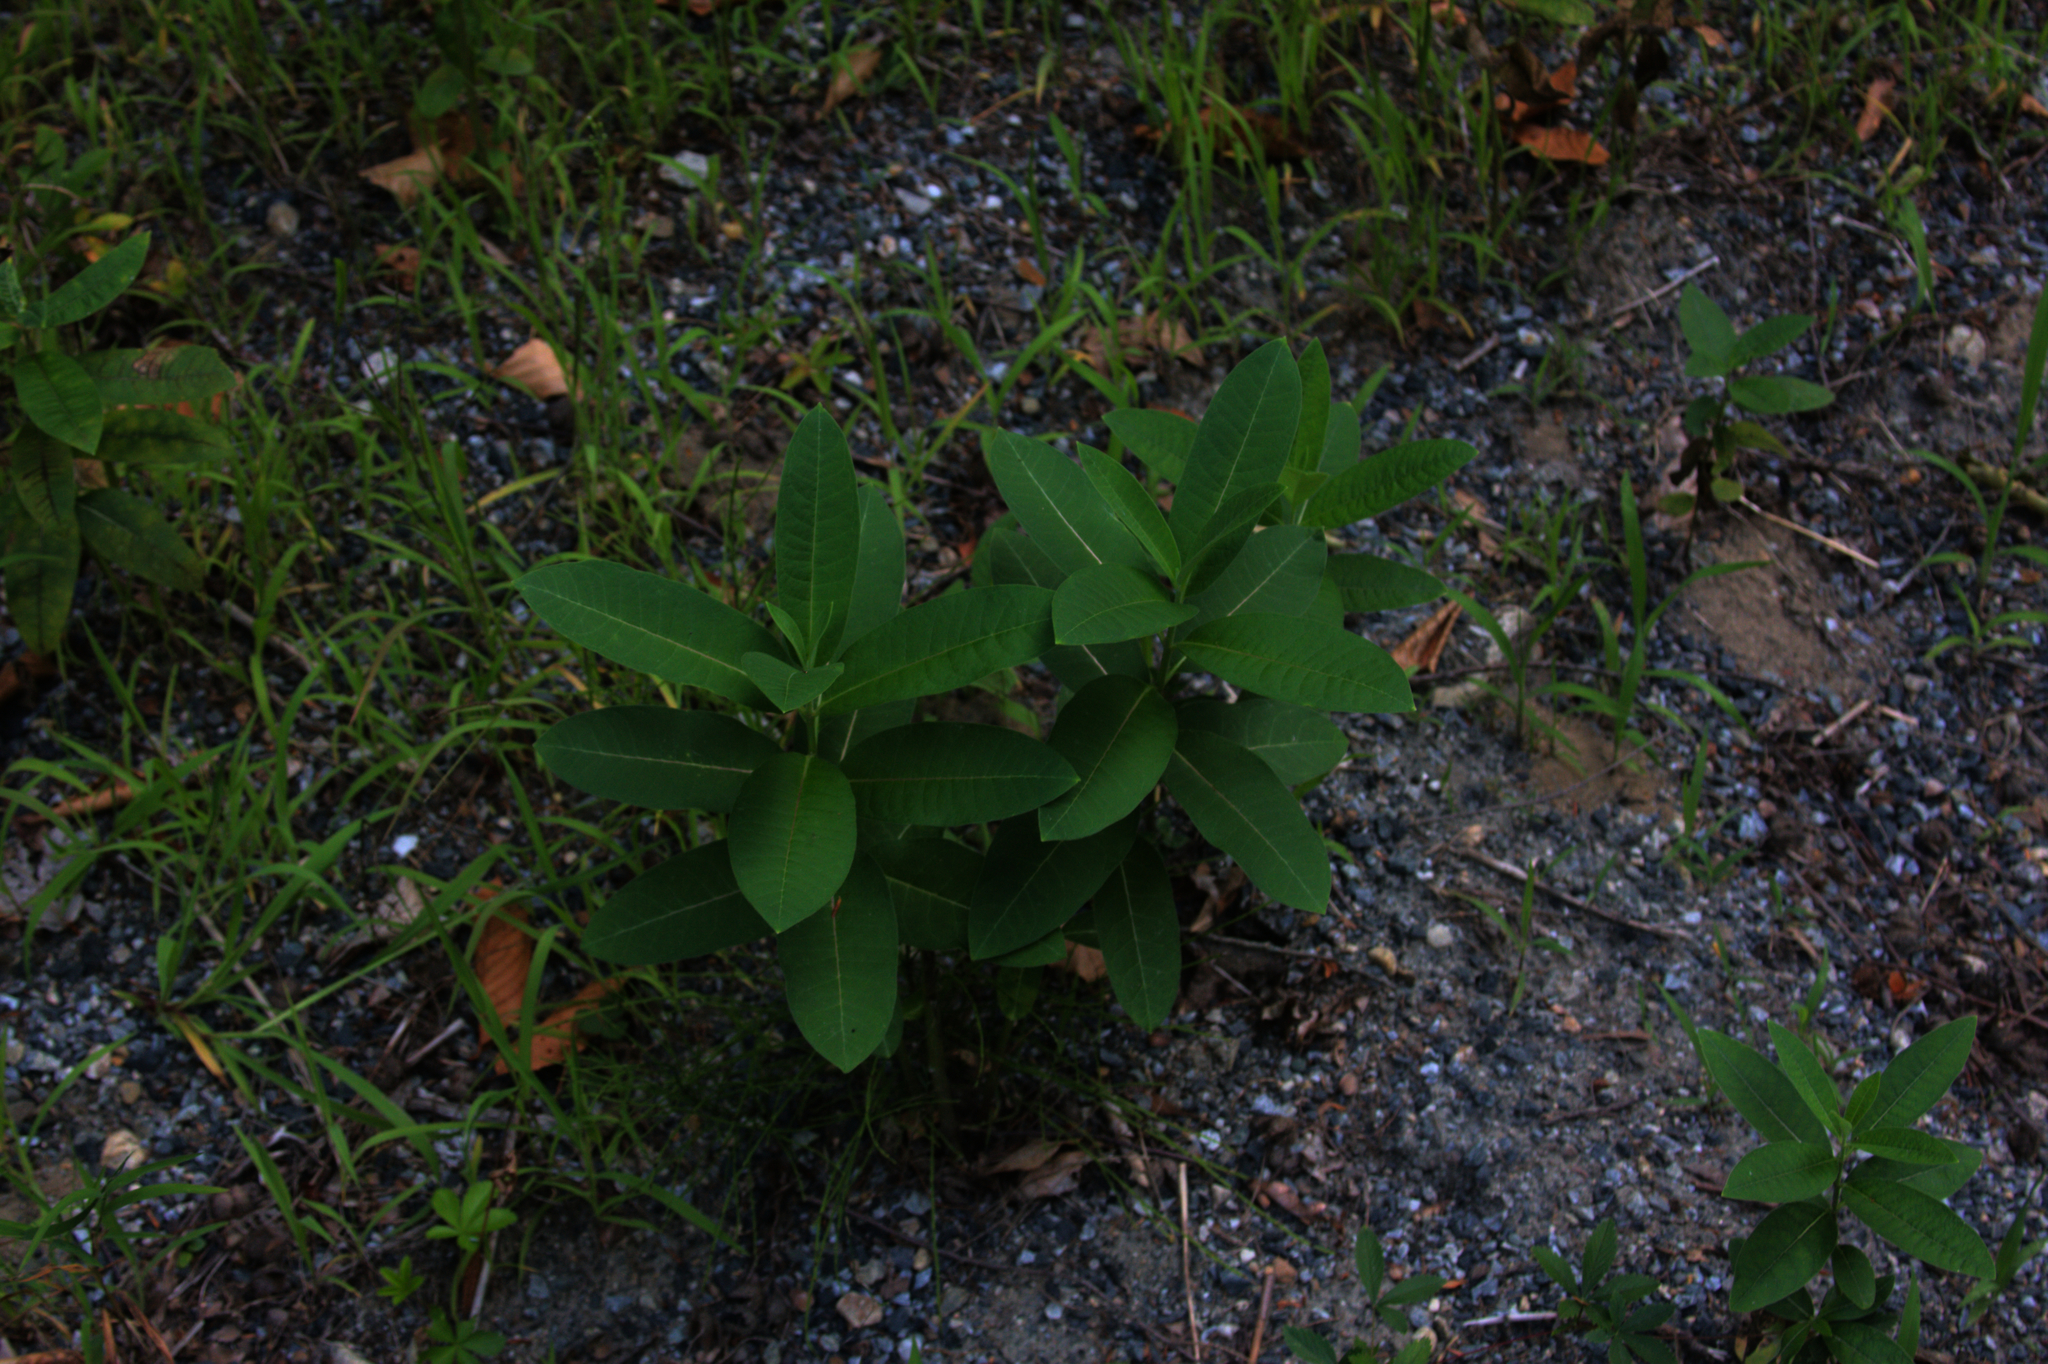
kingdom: Plantae
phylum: Tracheophyta
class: Magnoliopsida
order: Gentianales
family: Apocynaceae
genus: Asclepias
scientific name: Asclepias syriaca
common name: Common milkweed
